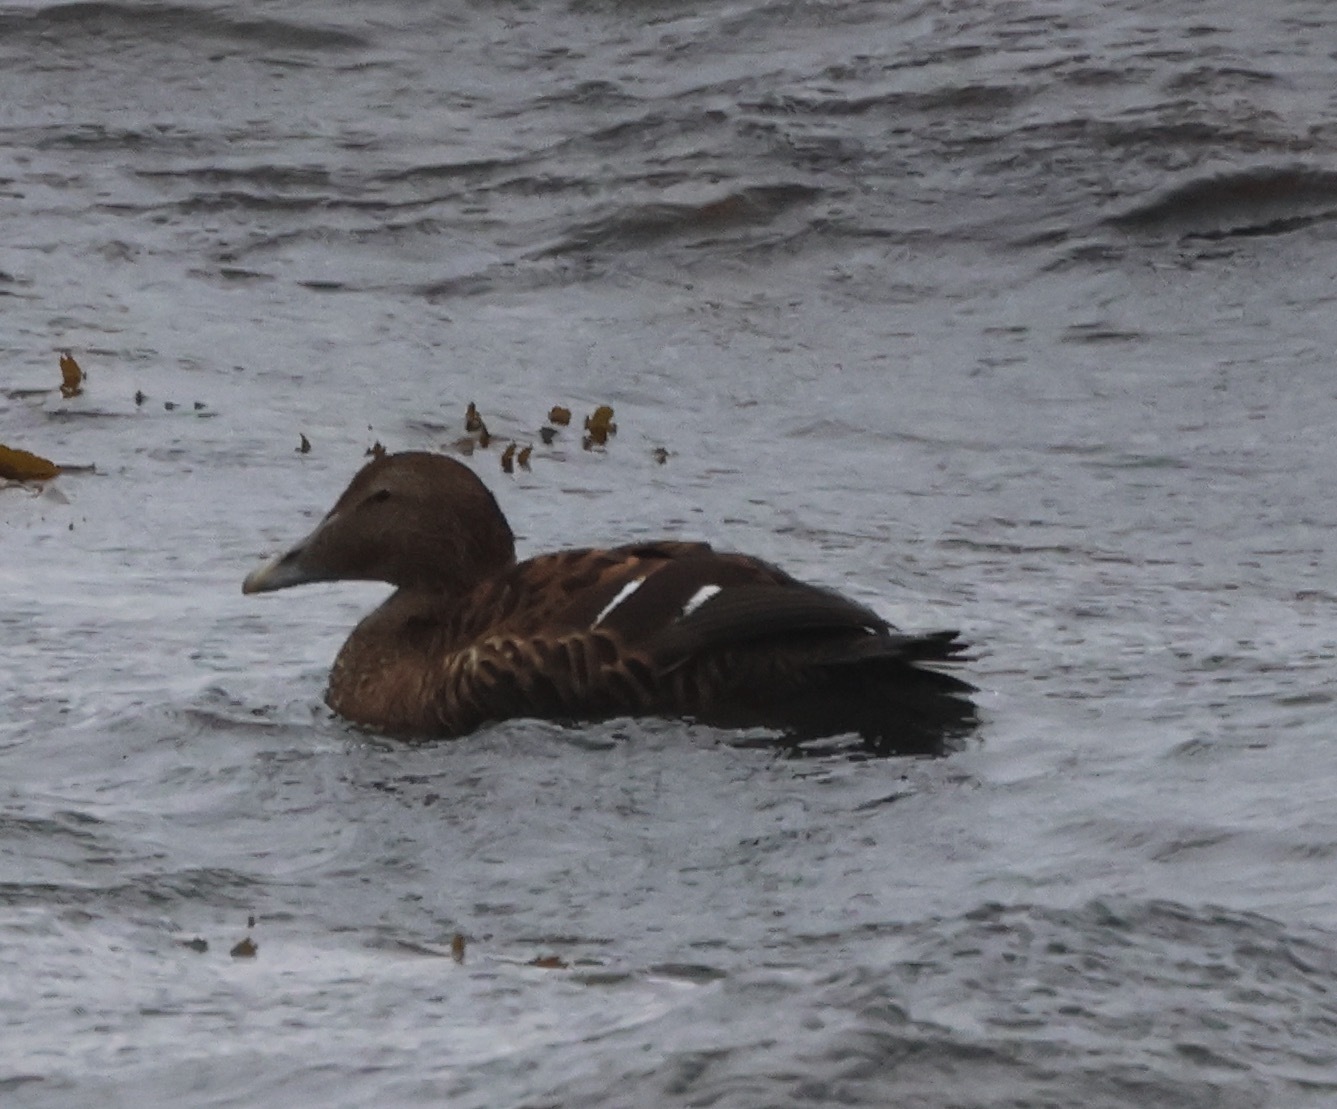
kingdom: Animalia
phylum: Chordata
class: Aves
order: Anseriformes
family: Anatidae
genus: Somateria
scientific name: Somateria mollissima
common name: Common eider
